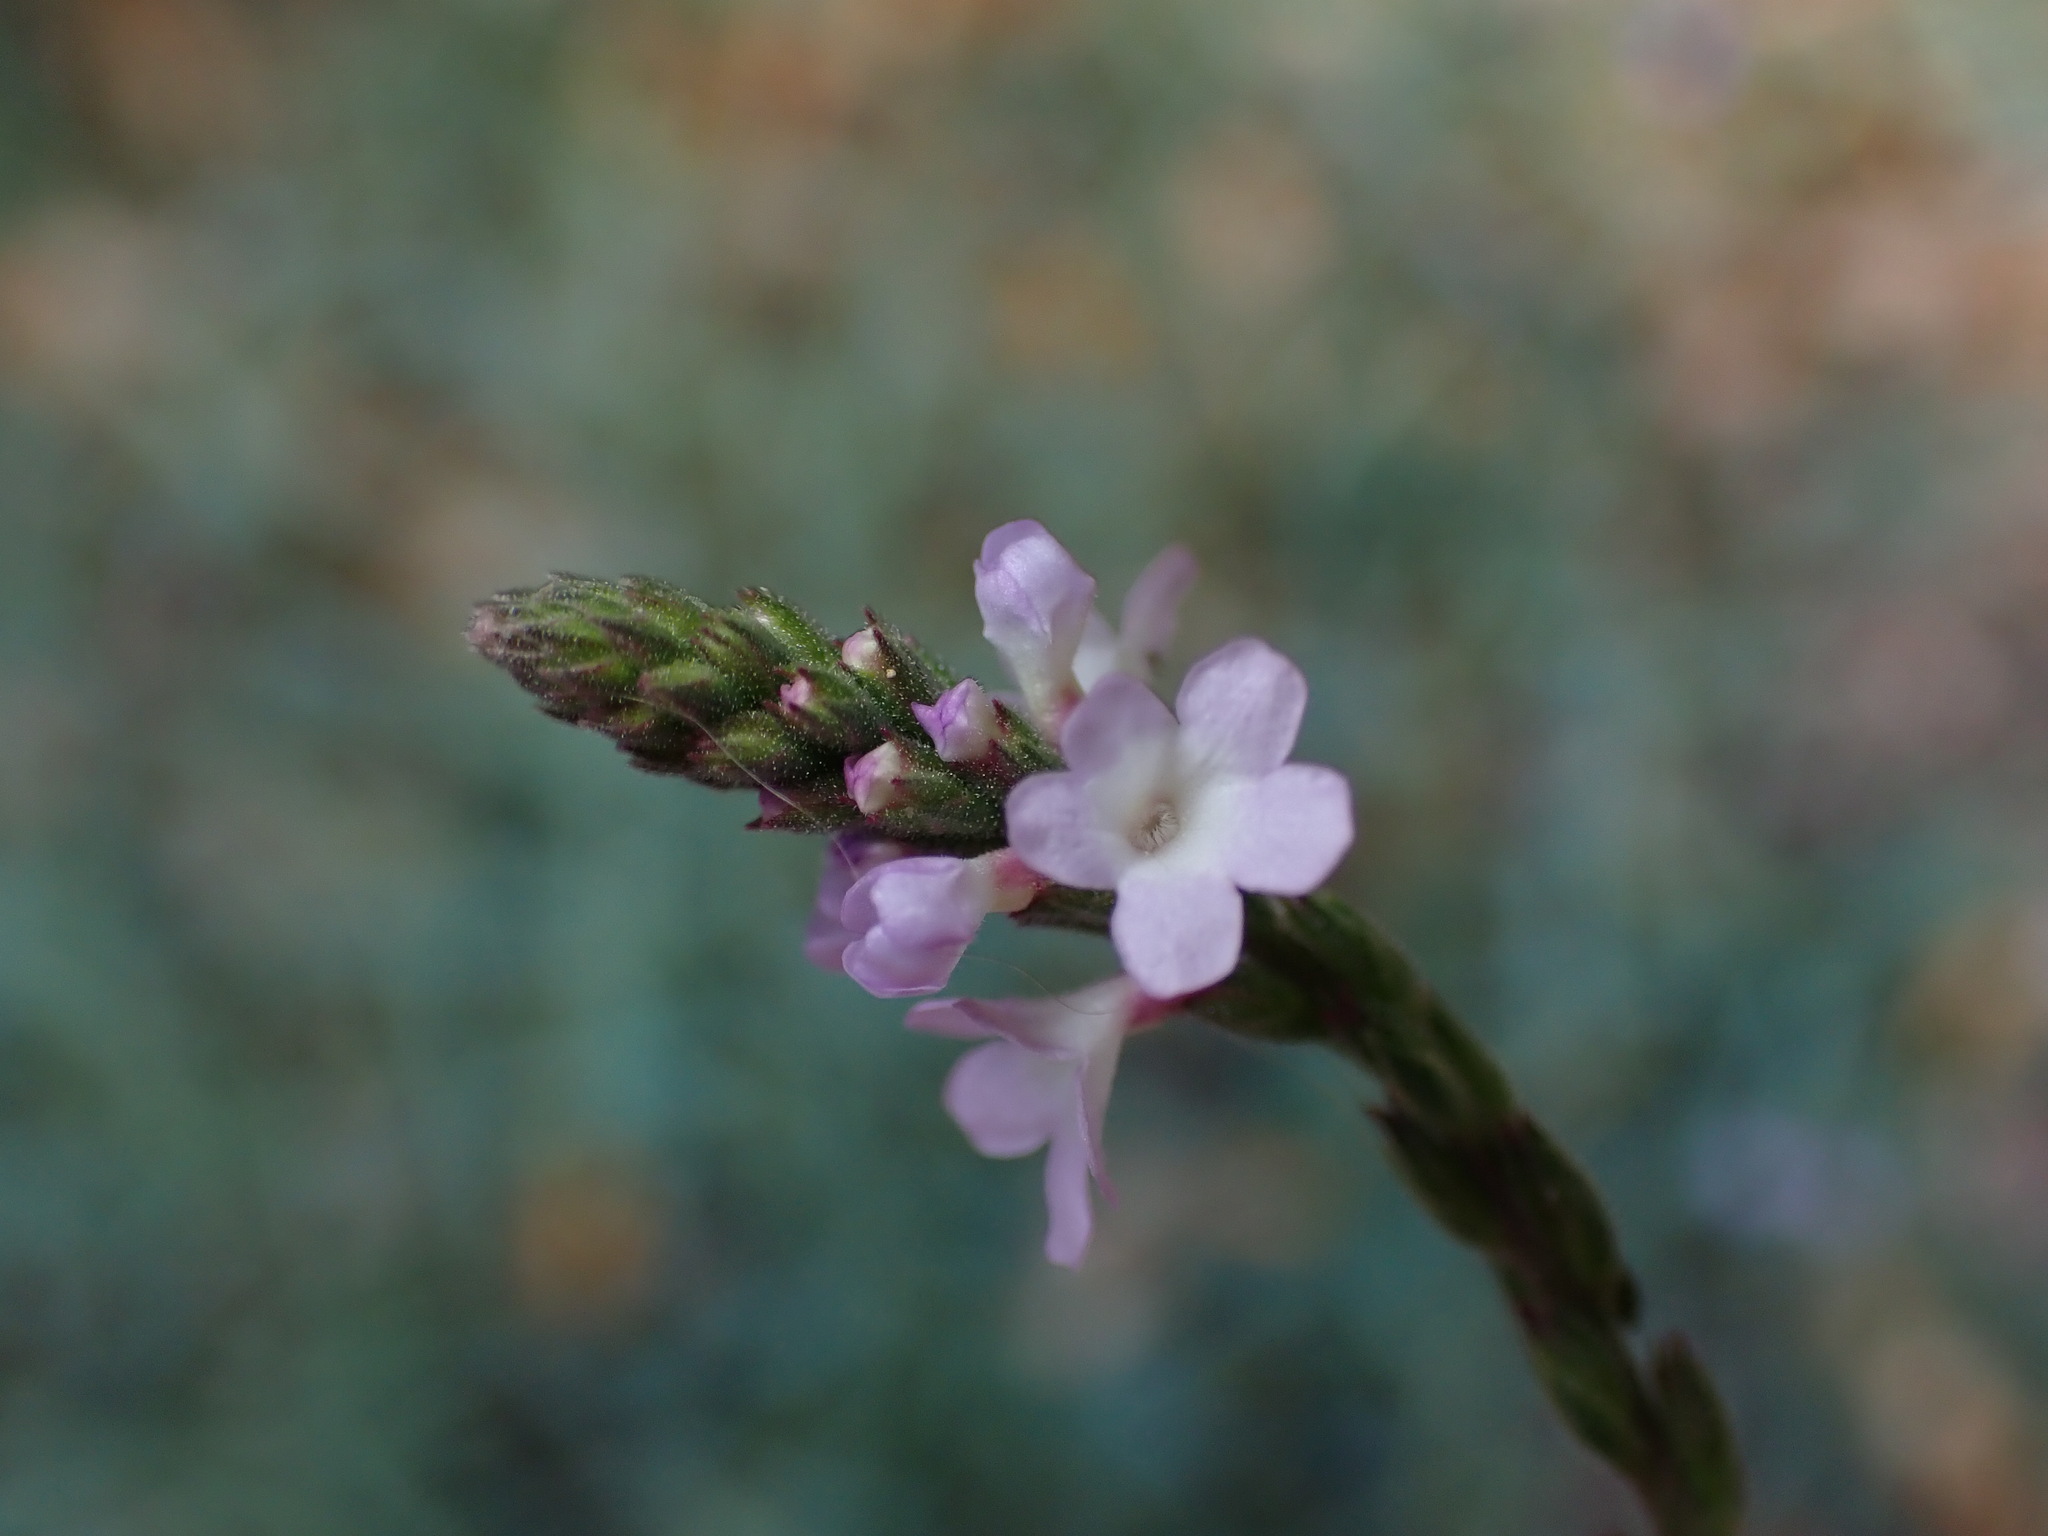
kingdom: Plantae
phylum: Tracheophyta
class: Magnoliopsida
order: Lamiales
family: Verbenaceae
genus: Verbena
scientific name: Verbena officinalis
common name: Vervain
